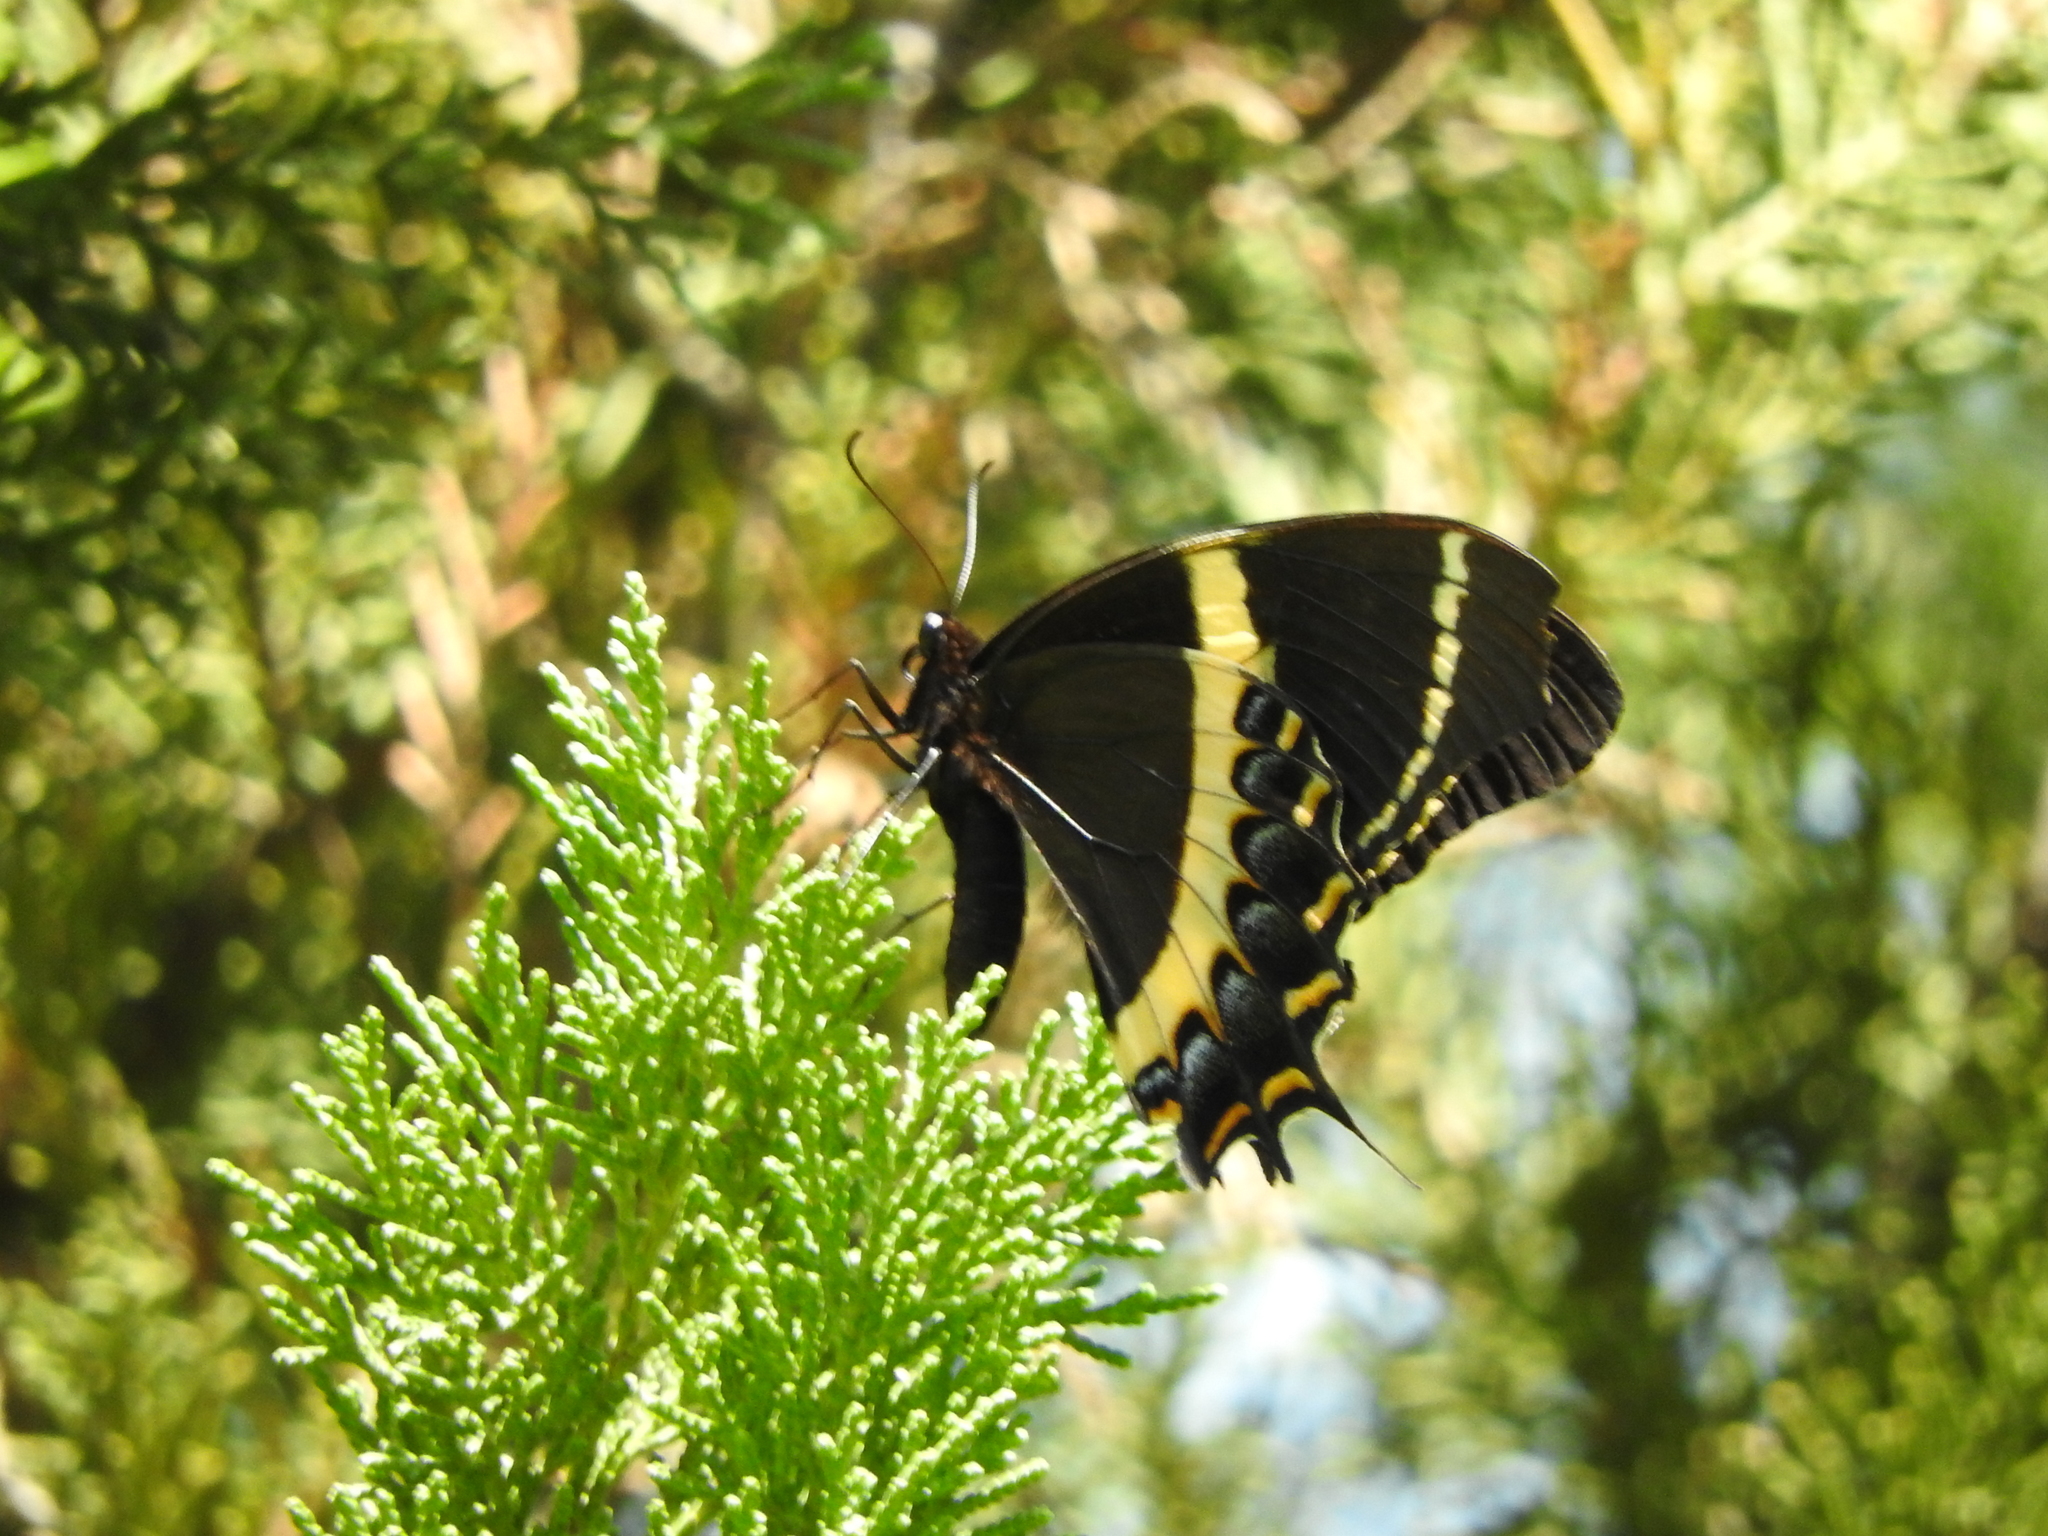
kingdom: Animalia
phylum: Arthropoda
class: Insecta
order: Lepidoptera
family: Papilionidae
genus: Papilio
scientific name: Papilio garamas
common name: Magnificent swallowtail
